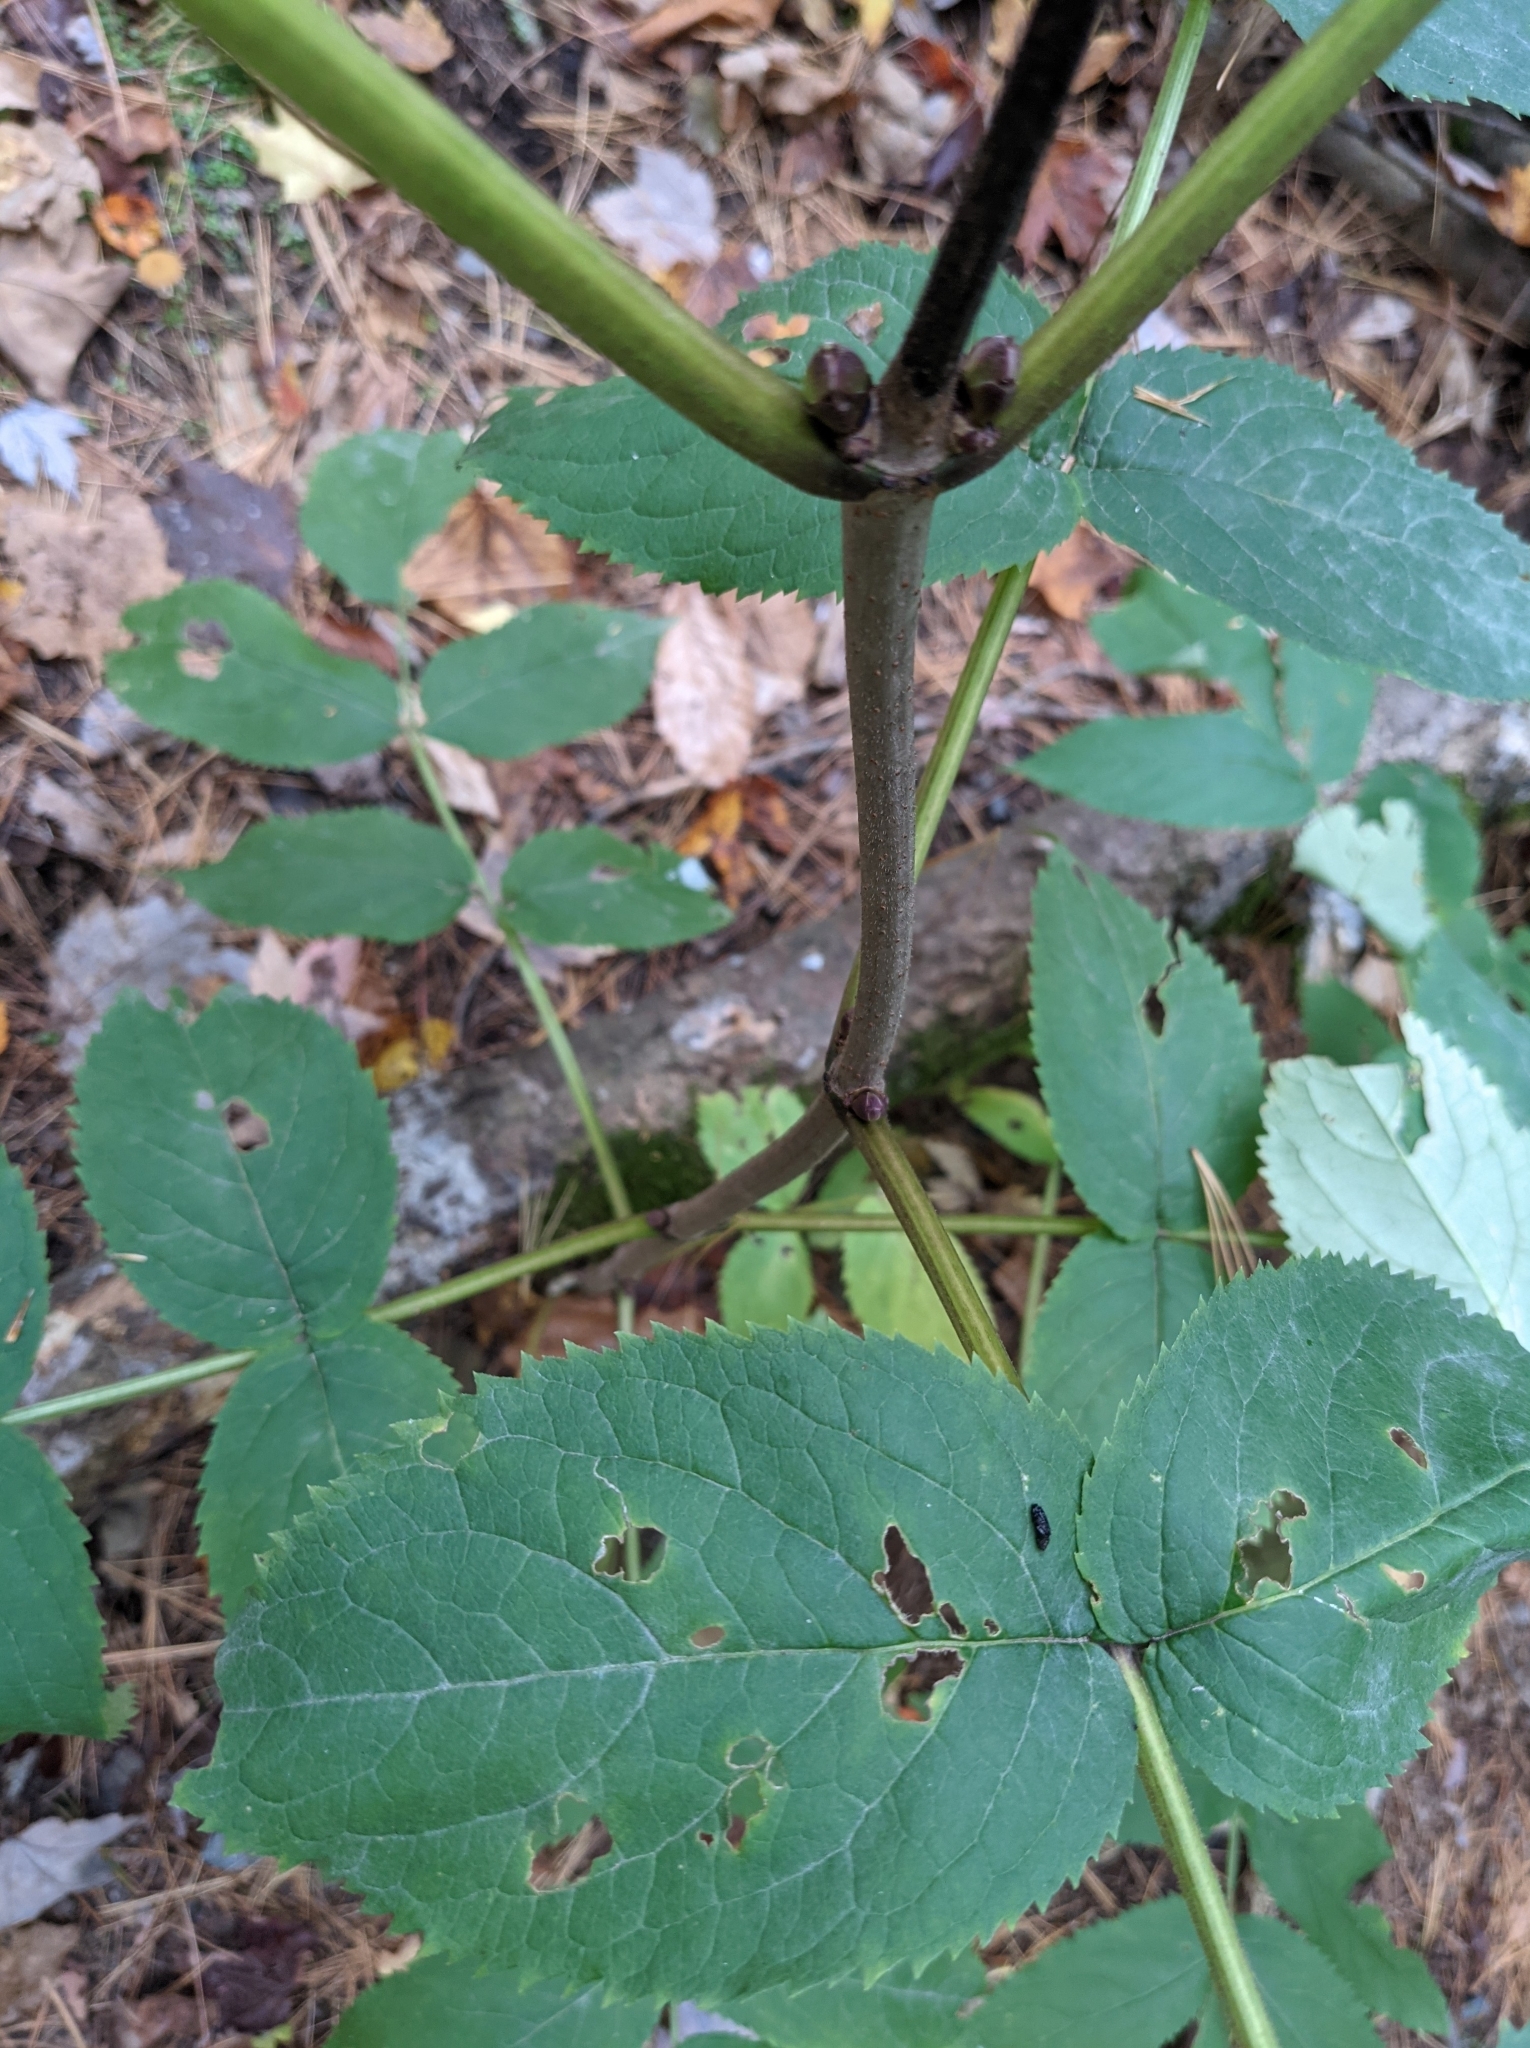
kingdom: Plantae
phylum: Tracheophyta
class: Magnoliopsida
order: Dipsacales
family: Viburnaceae
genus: Sambucus
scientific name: Sambucus racemosa
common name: Red-berried elder
